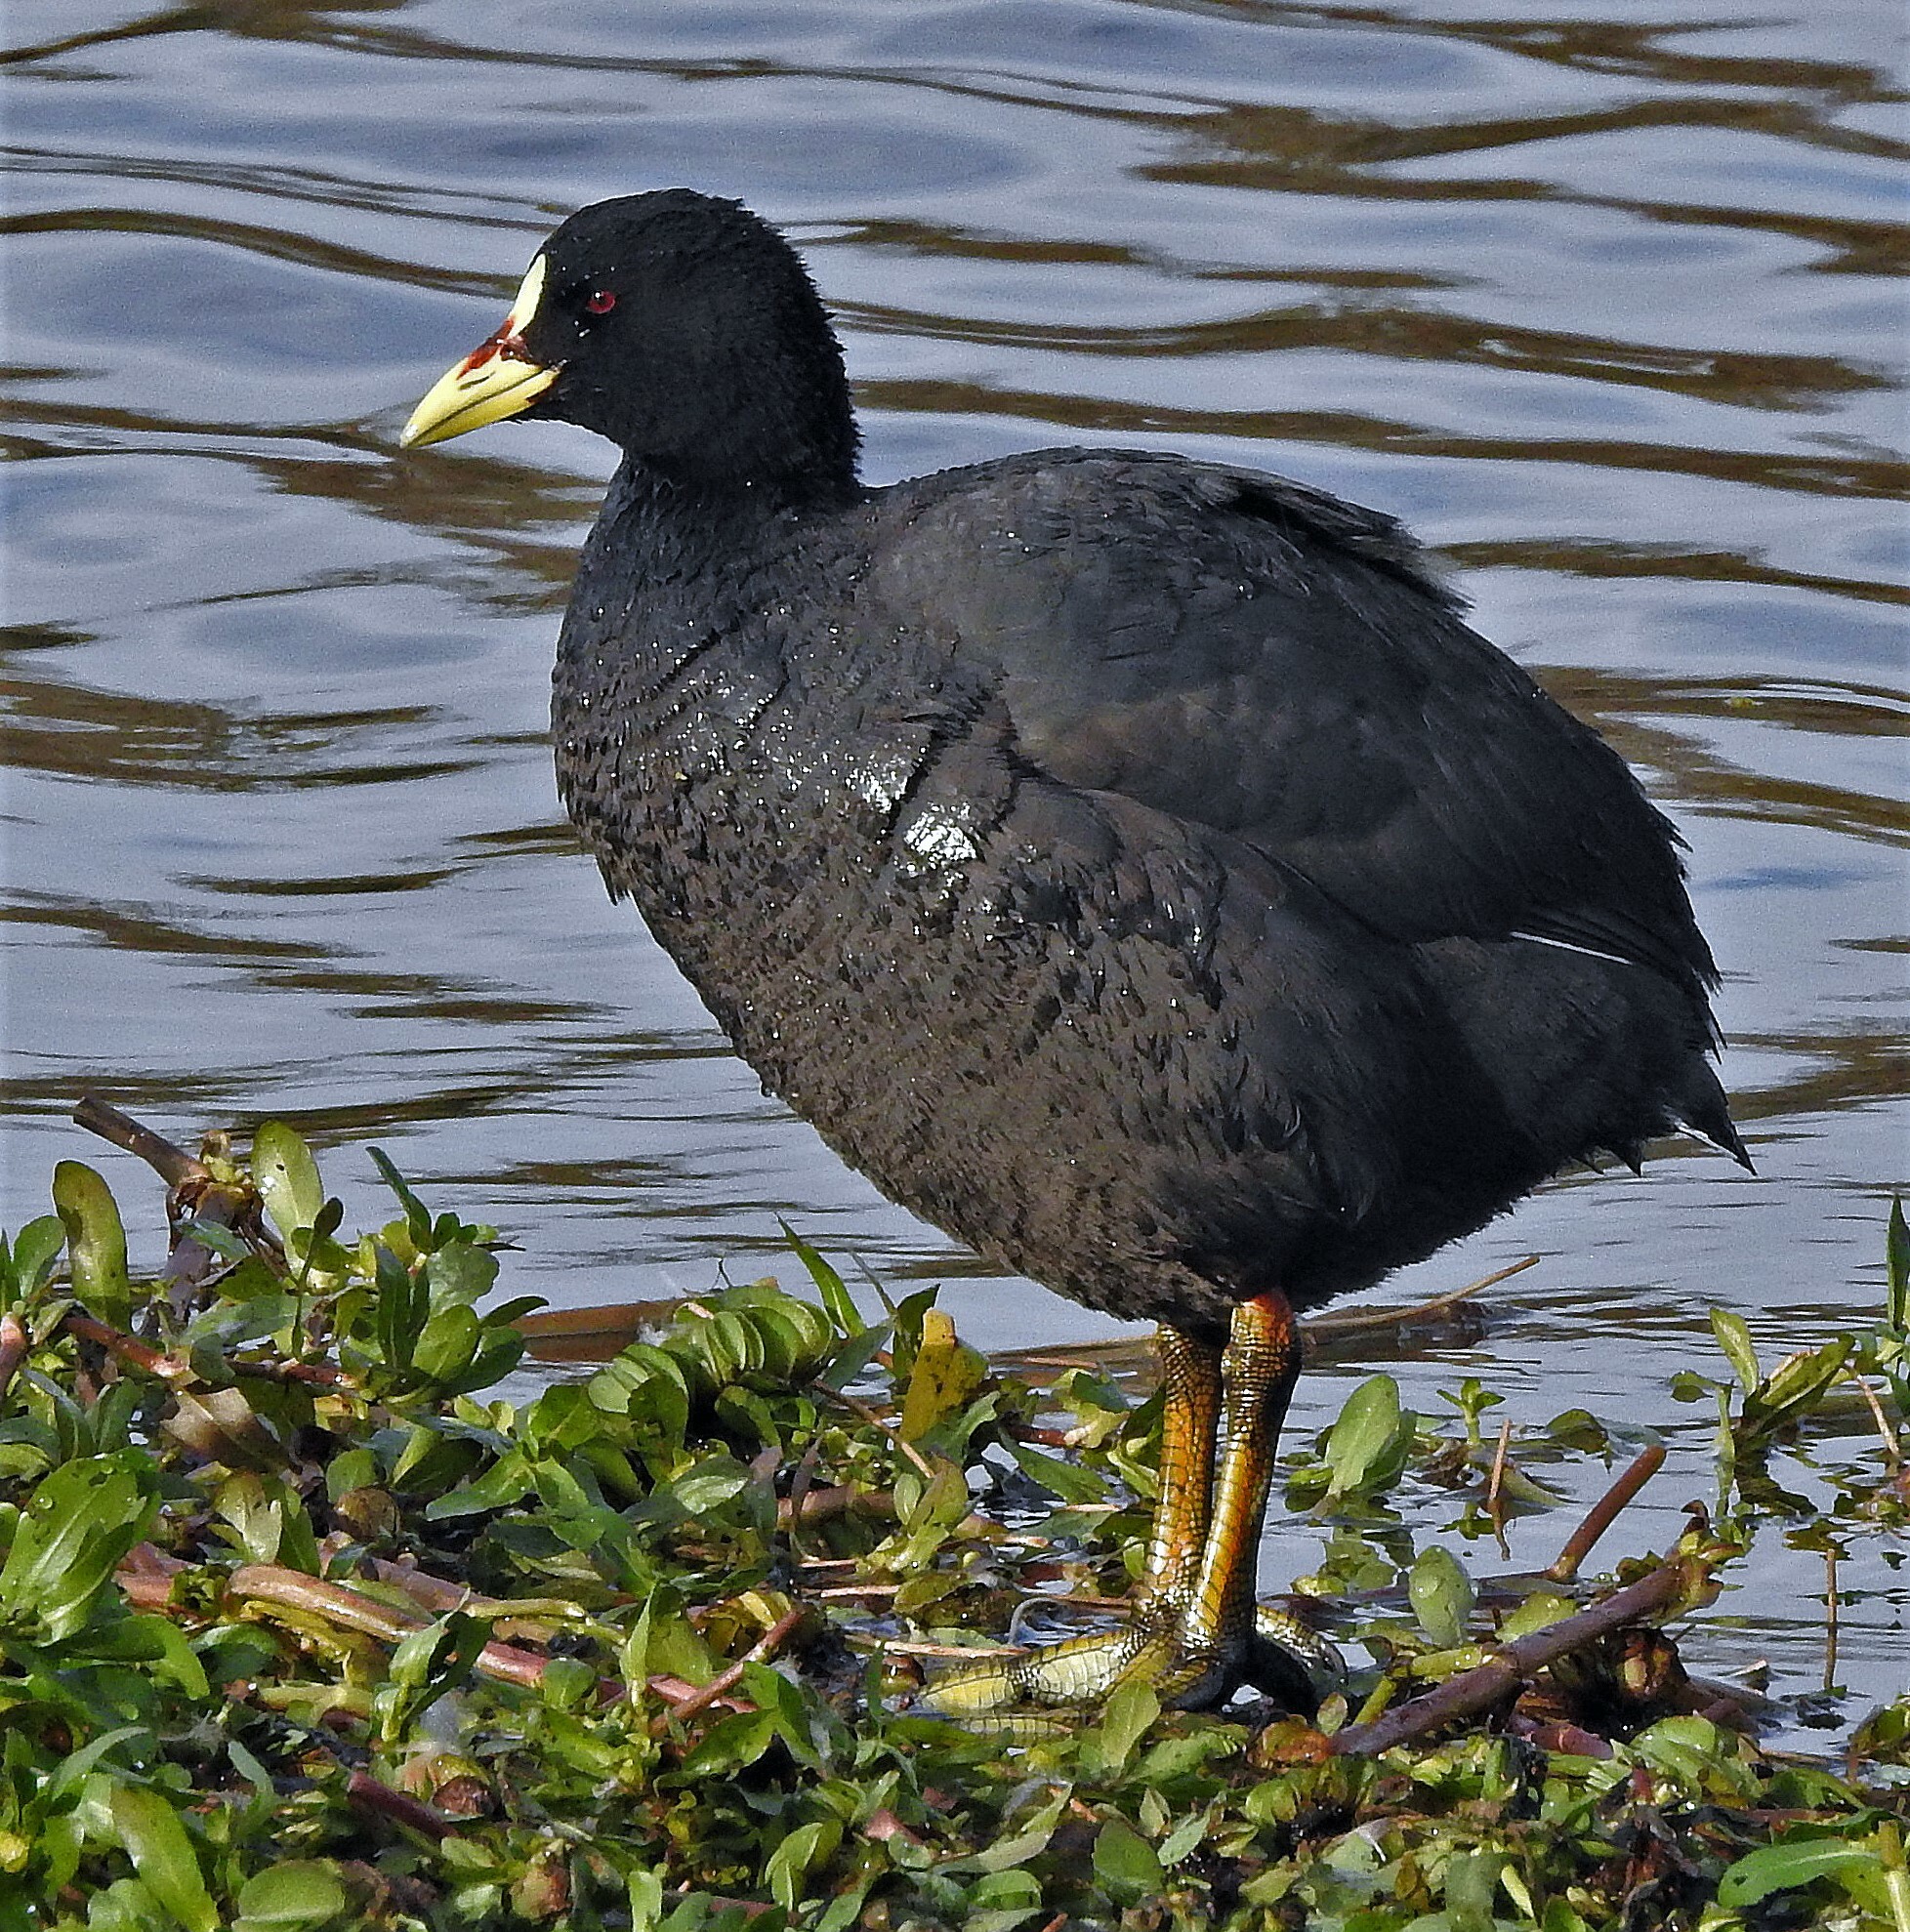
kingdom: Animalia
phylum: Chordata
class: Aves
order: Gruiformes
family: Rallidae
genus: Fulica
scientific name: Fulica armillata
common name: Red-gartered coot
